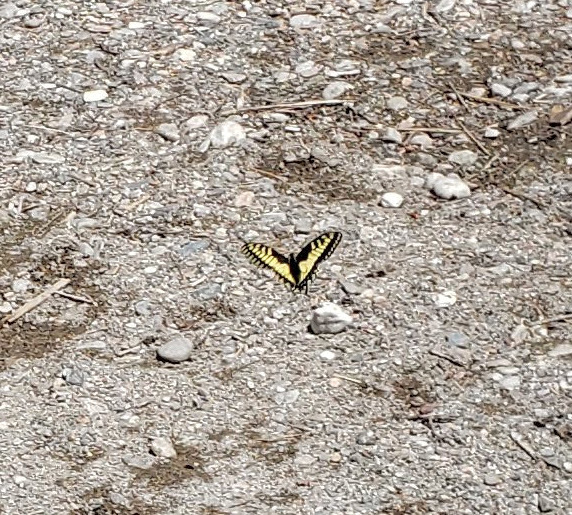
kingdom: Animalia
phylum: Arthropoda
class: Insecta
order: Lepidoptera
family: Papilionidae
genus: Papilio
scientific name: Papilio zelicaon
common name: Anise swallowtail
